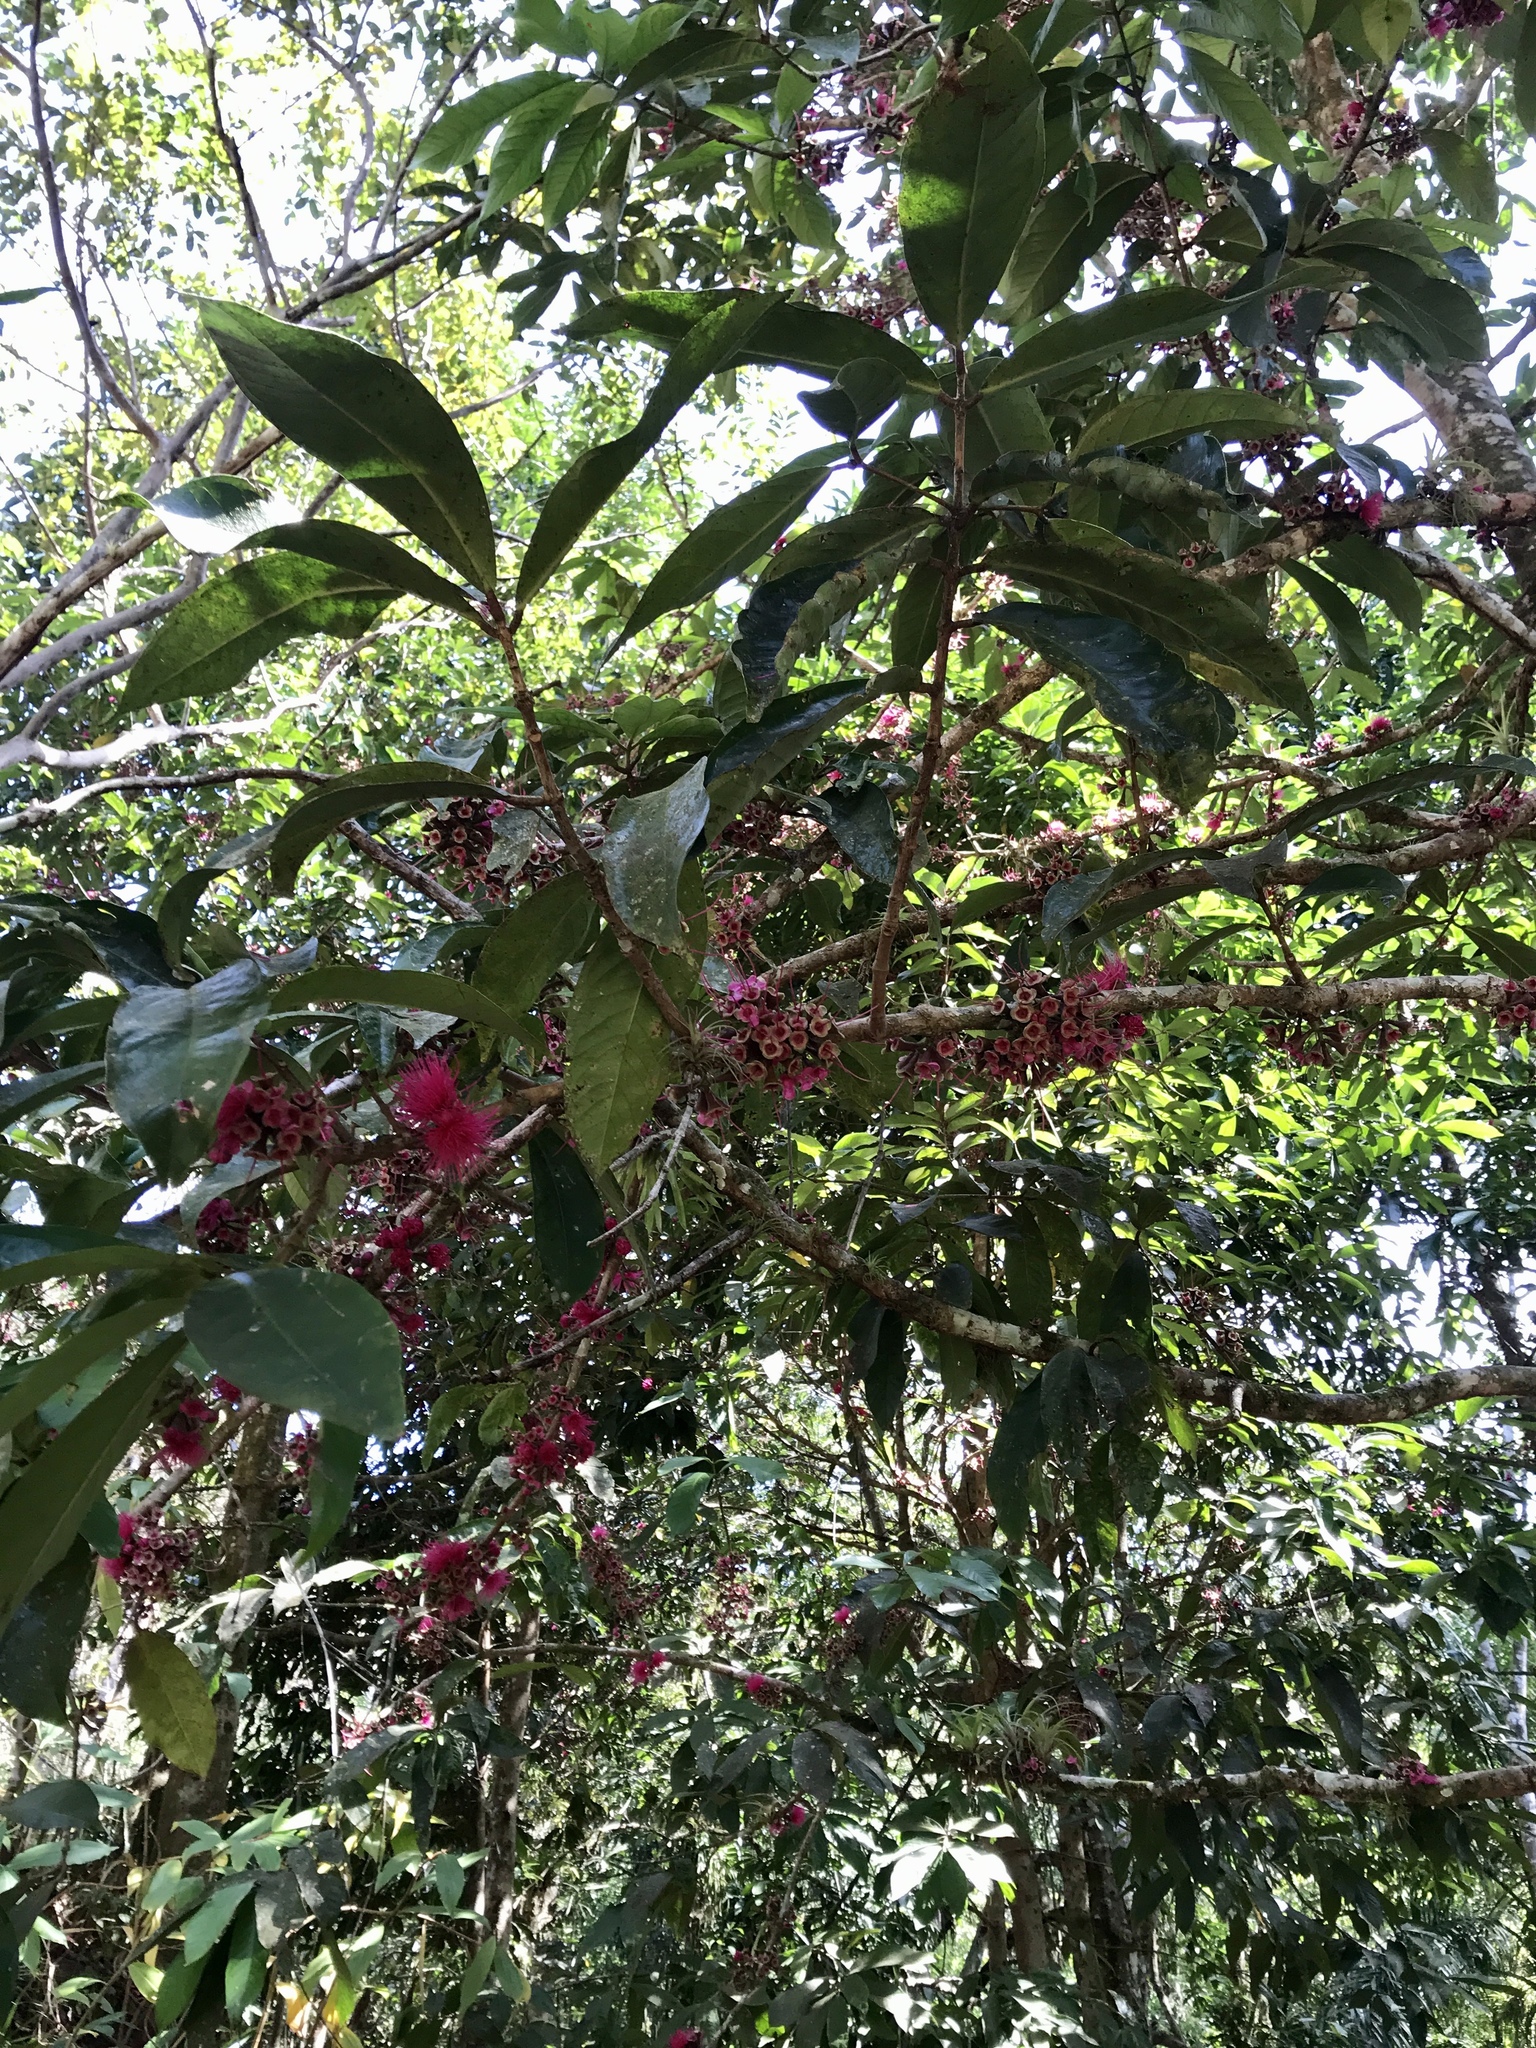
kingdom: Plantae
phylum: Tracheophyta
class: Magnoliopsida
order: Myrtales
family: Myrtaceae
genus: Syzygium
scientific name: Syzygium malaccense
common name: Malaysian apple
